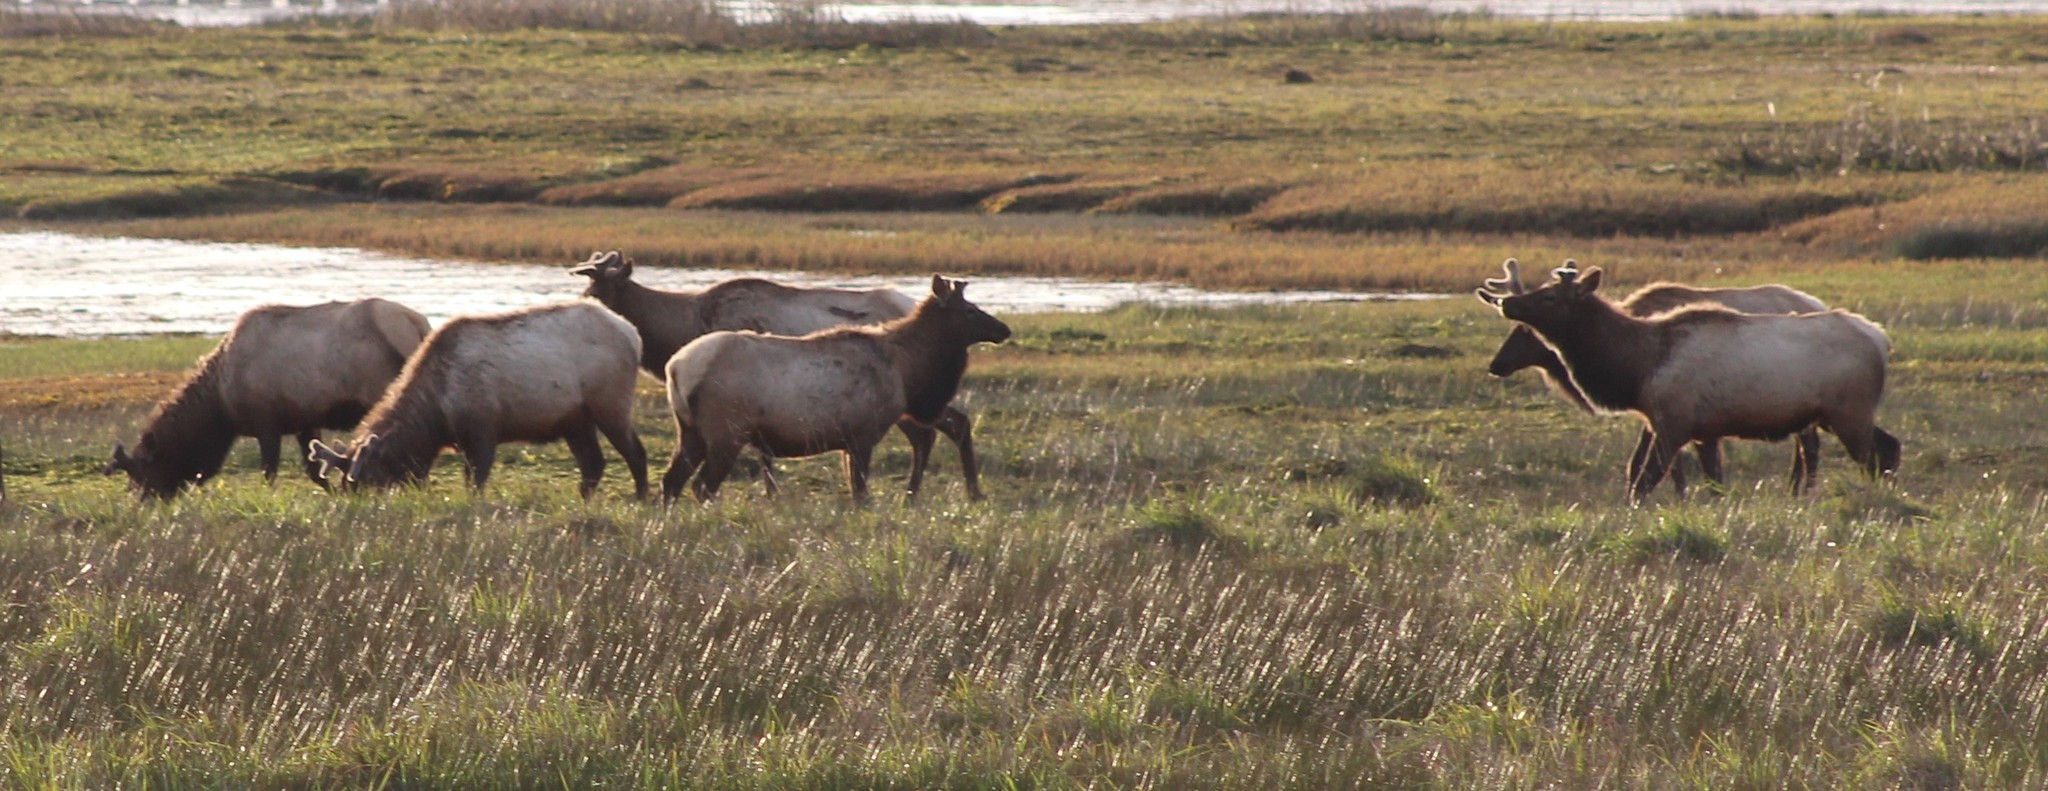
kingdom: Animalia
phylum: Chordata
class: Mammalia
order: Artiodactyla
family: Cervidae
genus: Cervus
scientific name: Cervus elaphus
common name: Red deer
